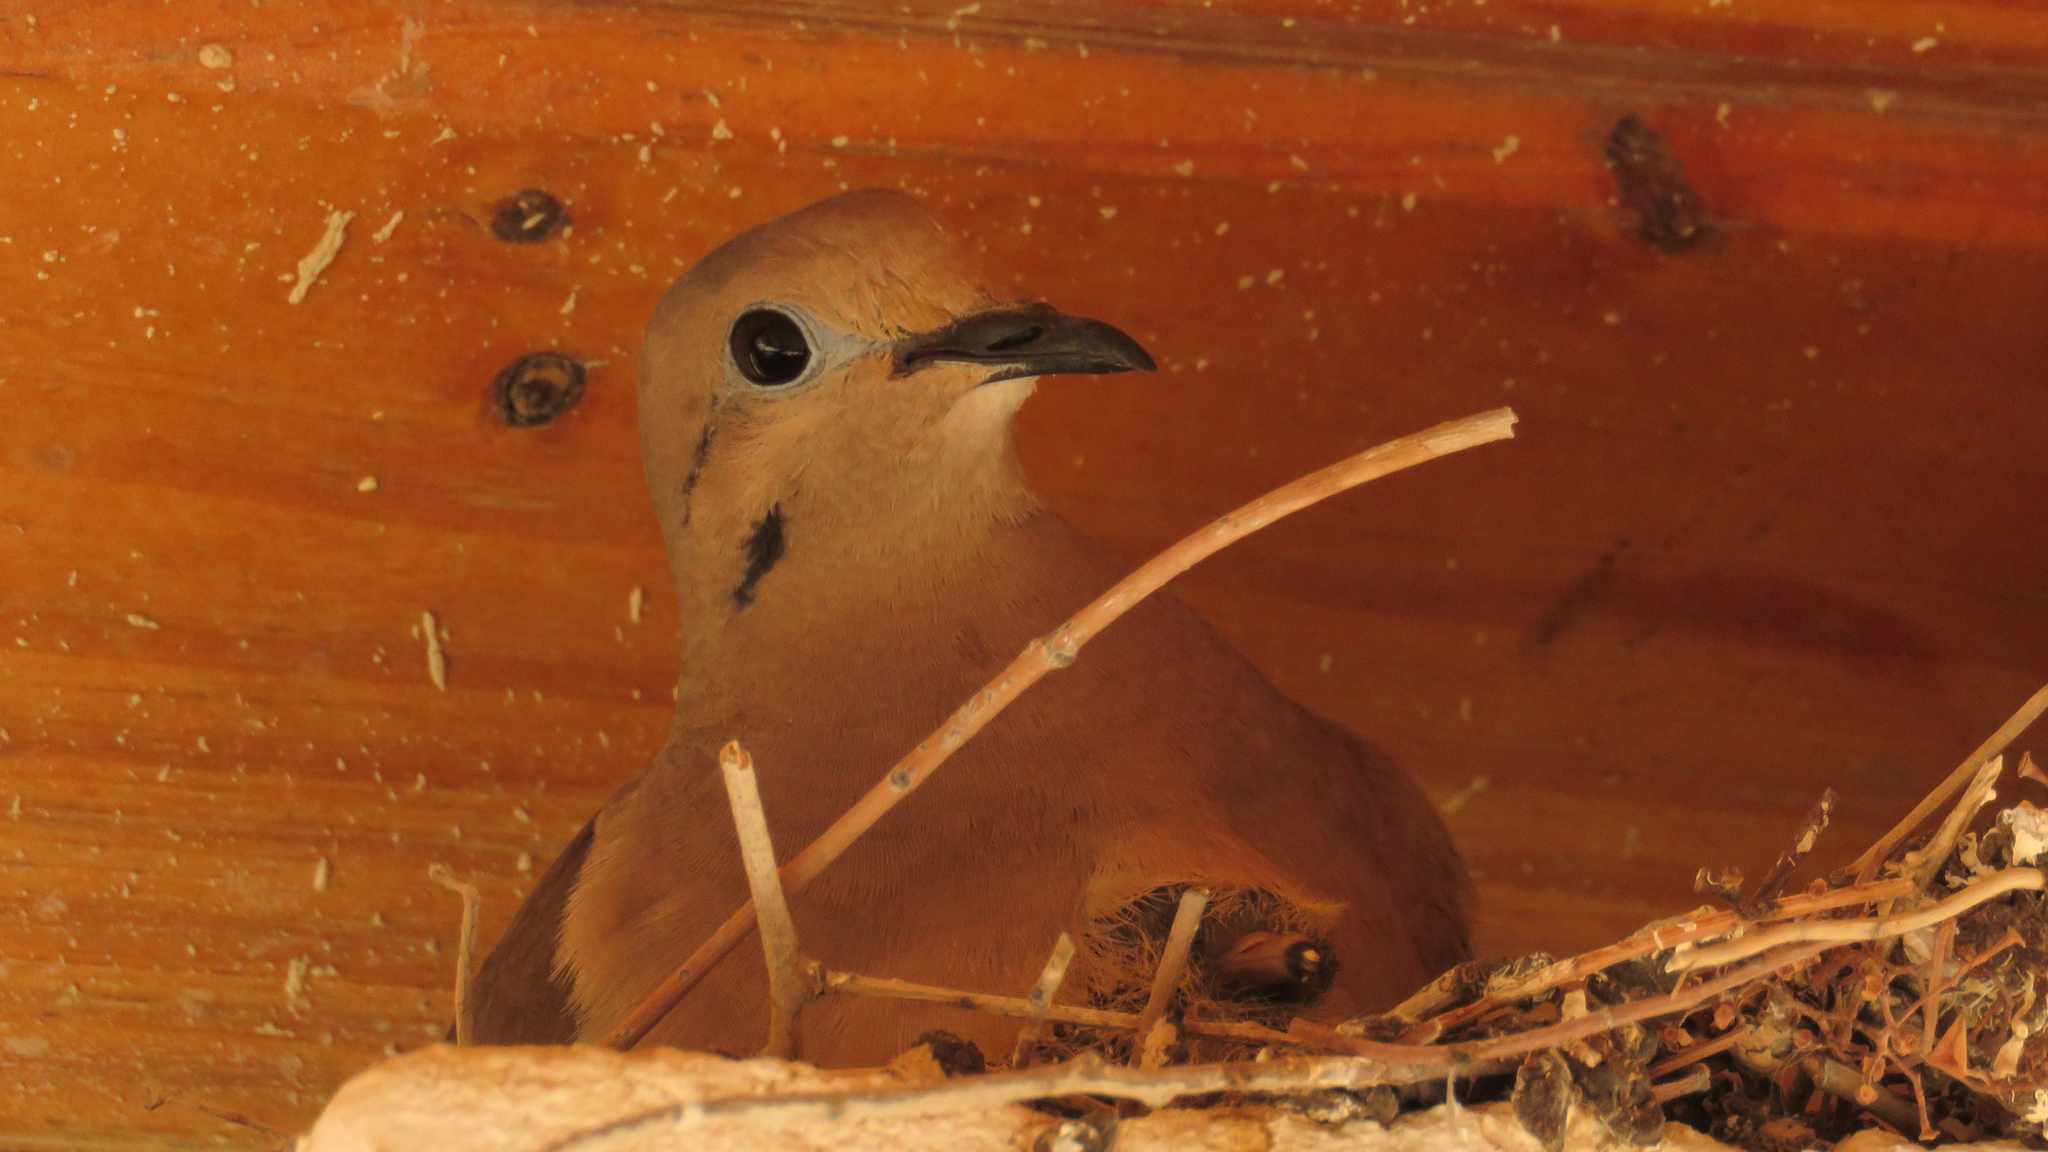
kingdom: Animalia
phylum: Chordata
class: Aves
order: Columbiformes
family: Columbidae
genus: Zenaida
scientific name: Zenaida auriculata
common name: Eared dove
